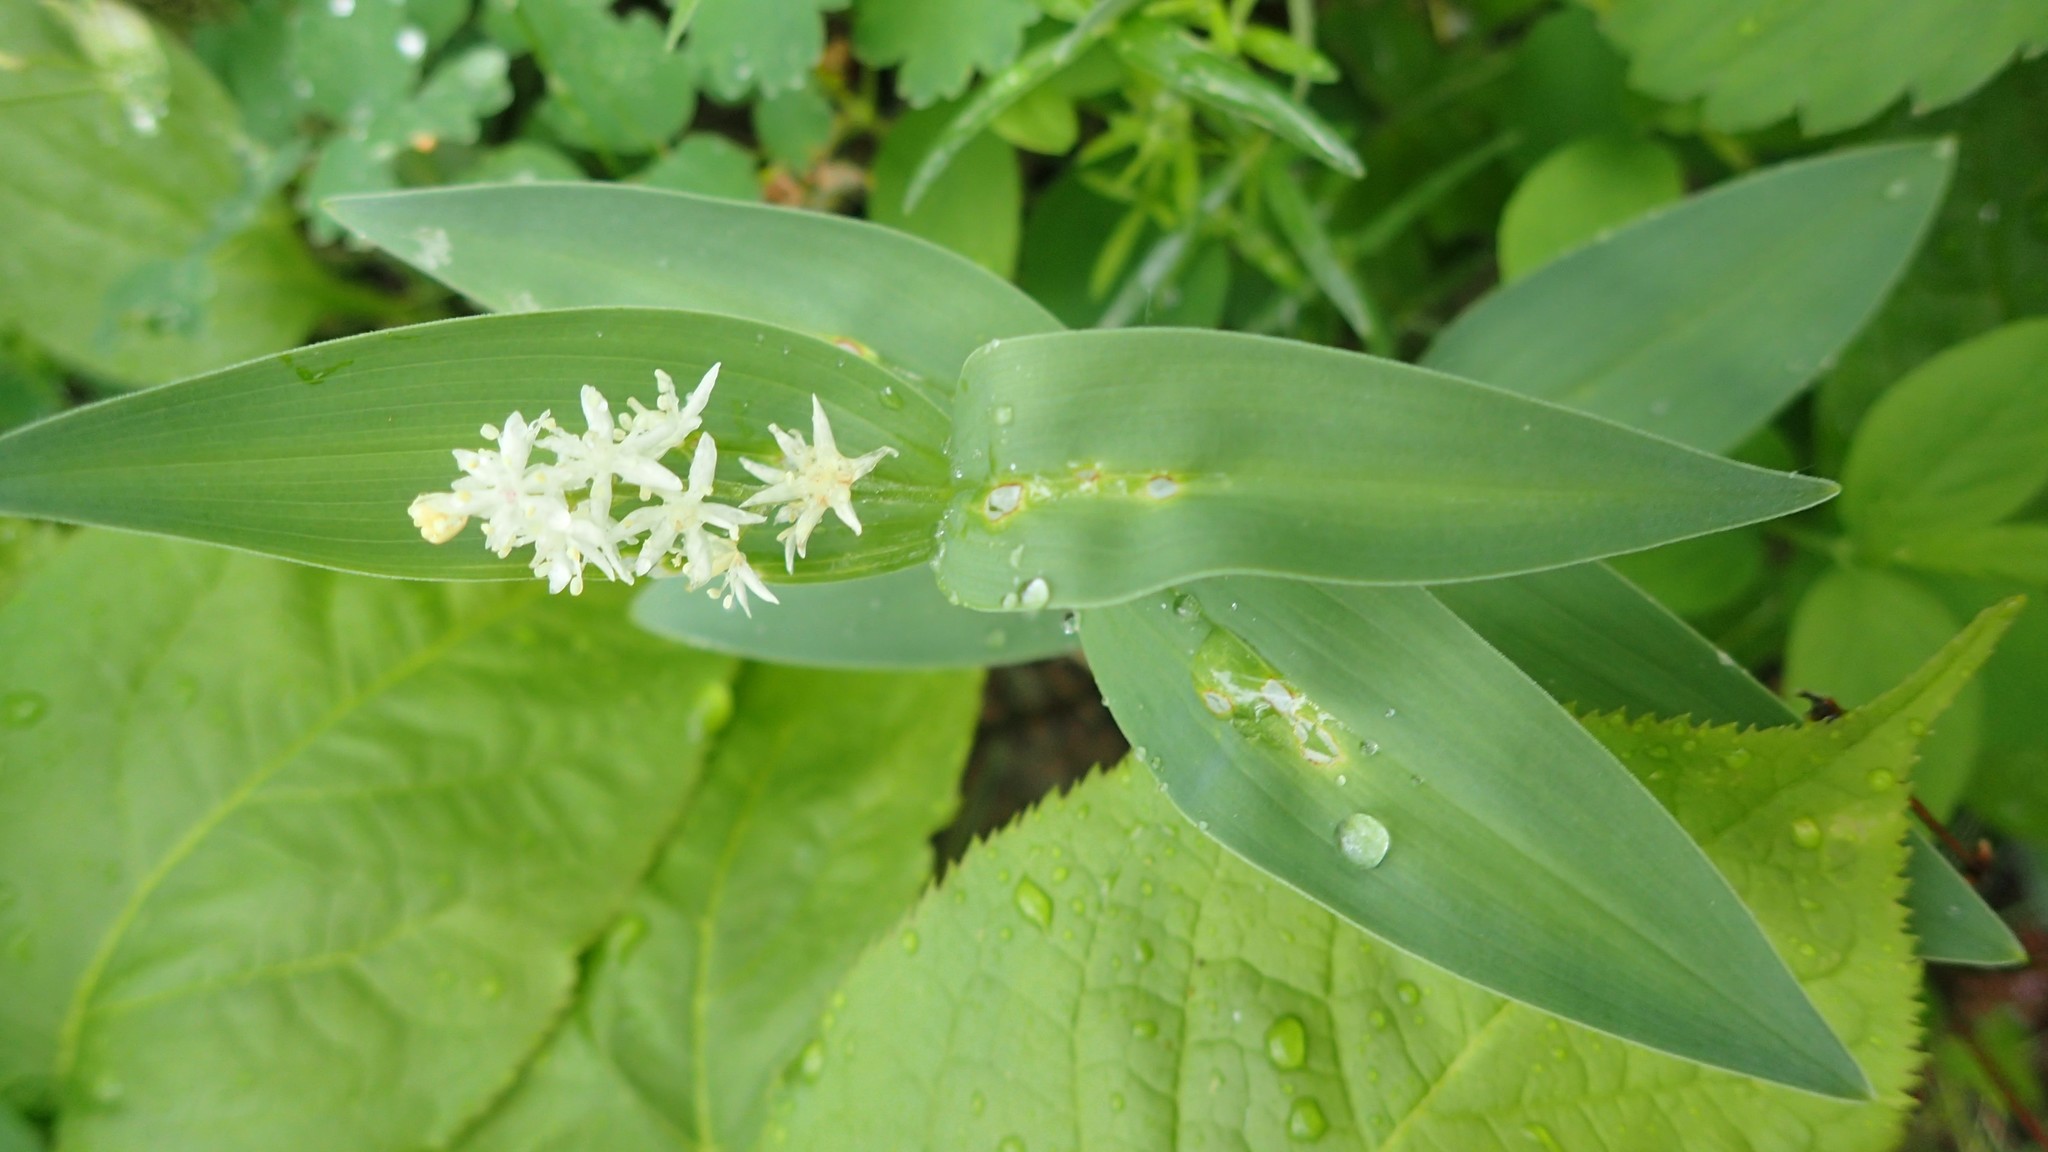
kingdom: Plantae
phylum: Tracheophyta
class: Liliopsida
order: Asparagales
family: Asparagaceae
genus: Maianthemum
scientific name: Maianthemum stellatum
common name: Little false solomon's seal
